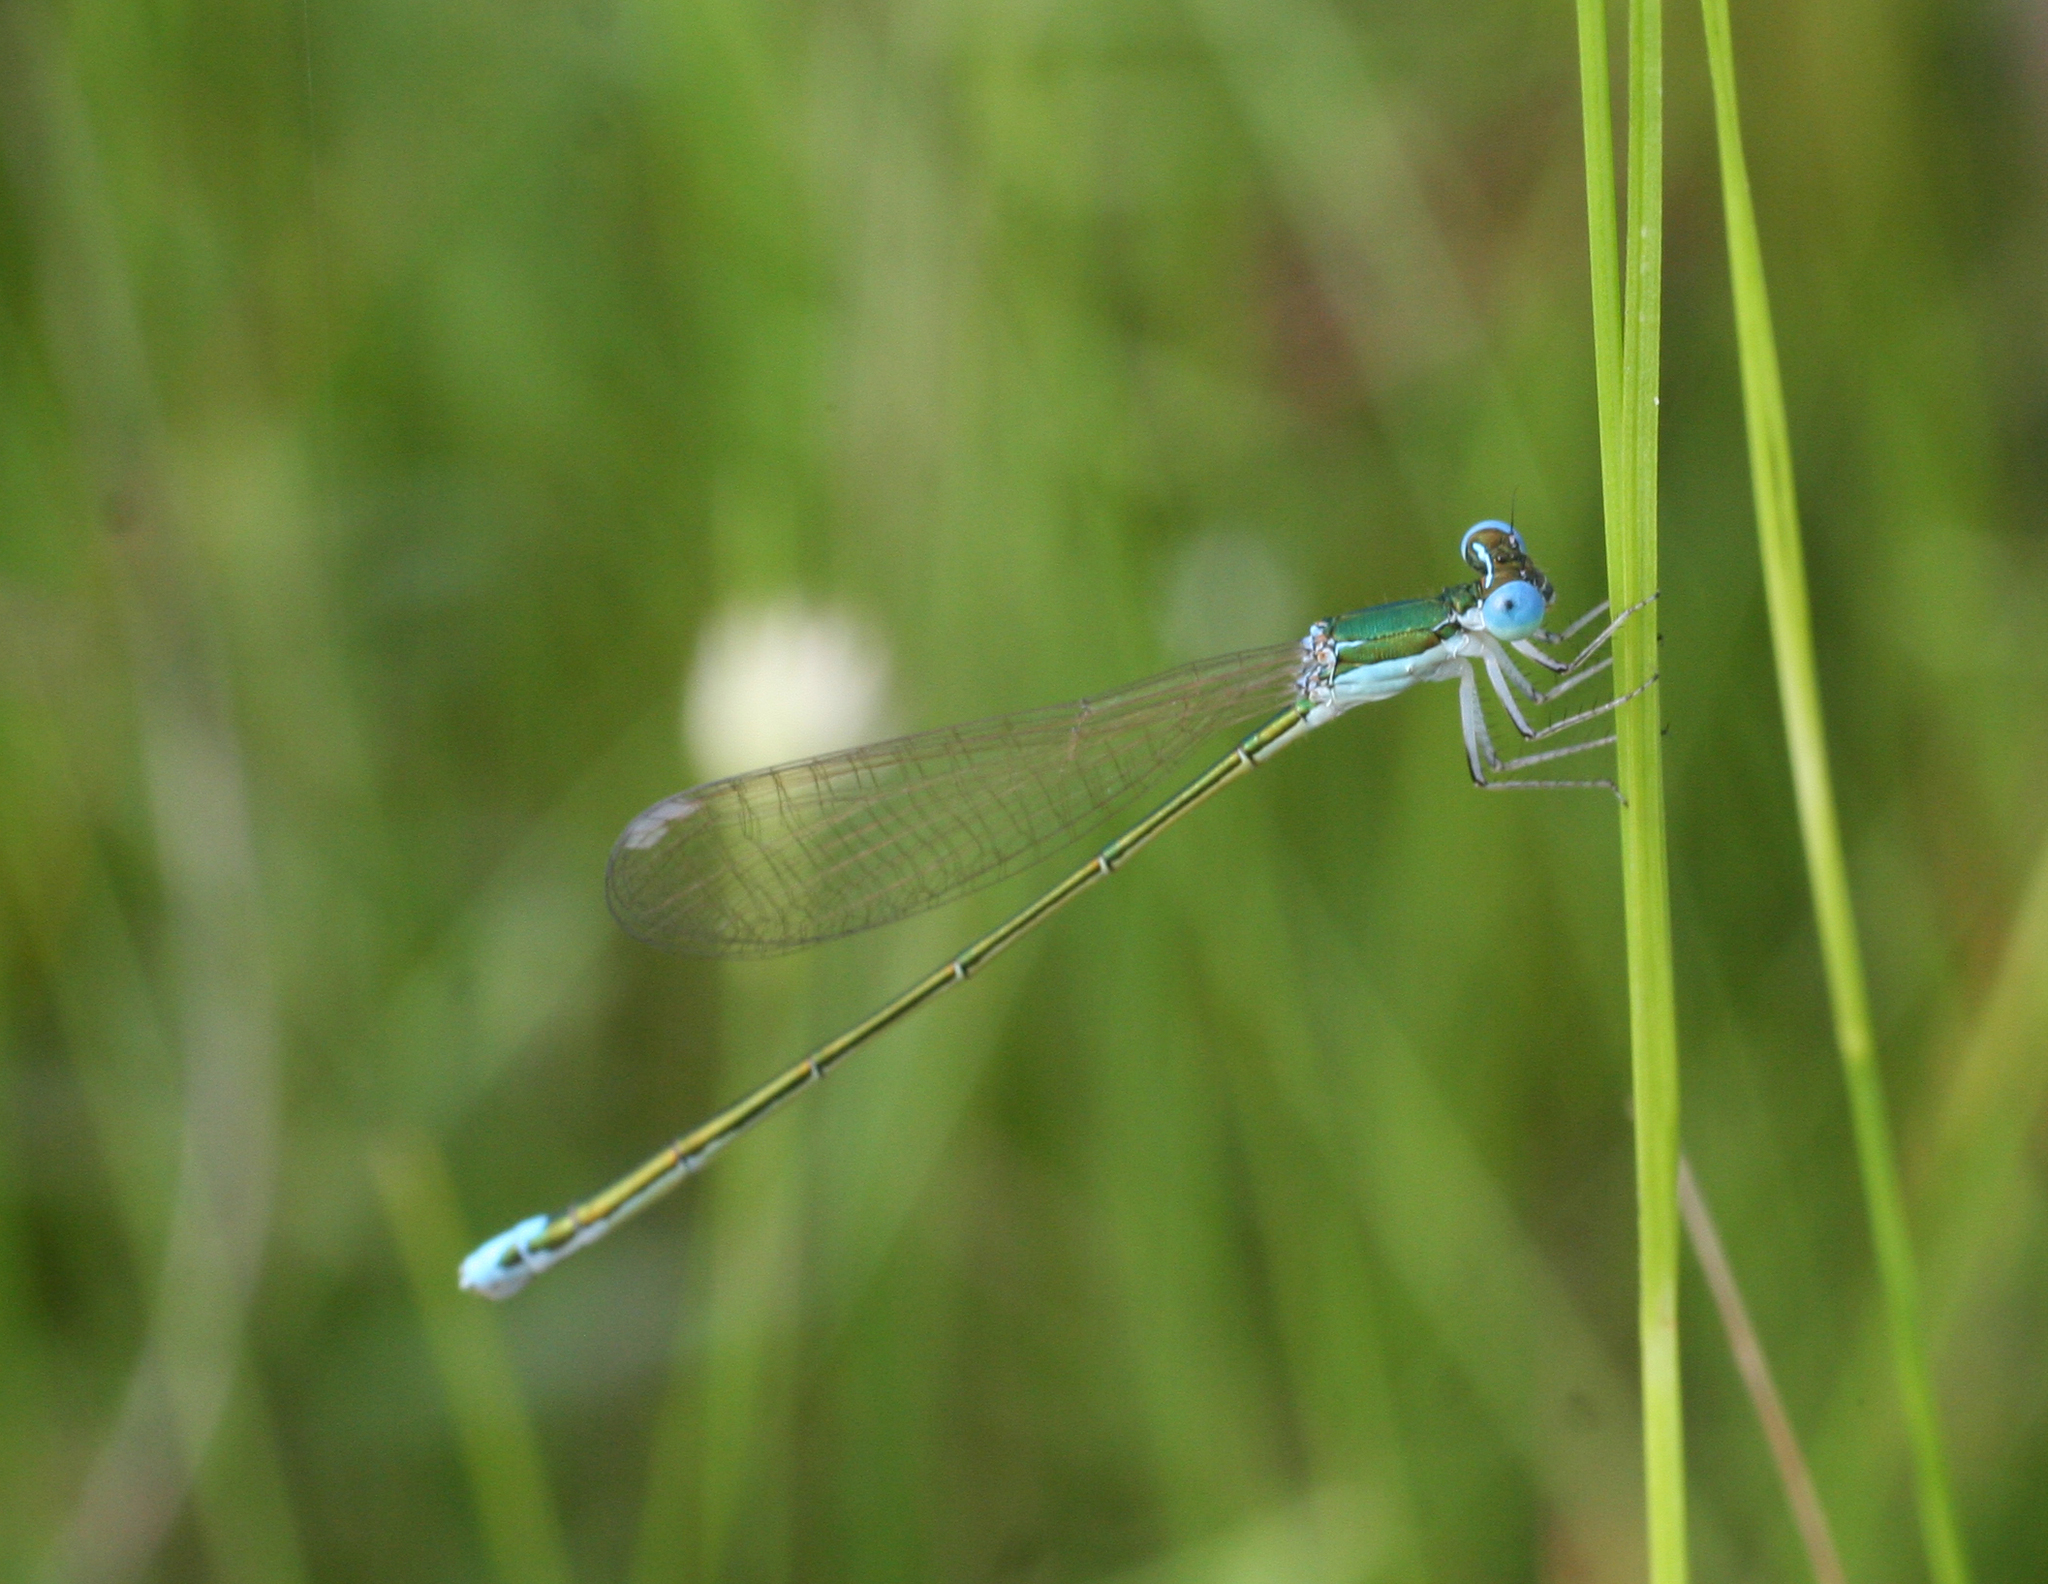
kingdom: Animalia
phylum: Arthropoda
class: Insecta
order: Odonata
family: Coenagrionidae
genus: Nehalennia
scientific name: Nehalennia speciosa
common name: Sedgling
